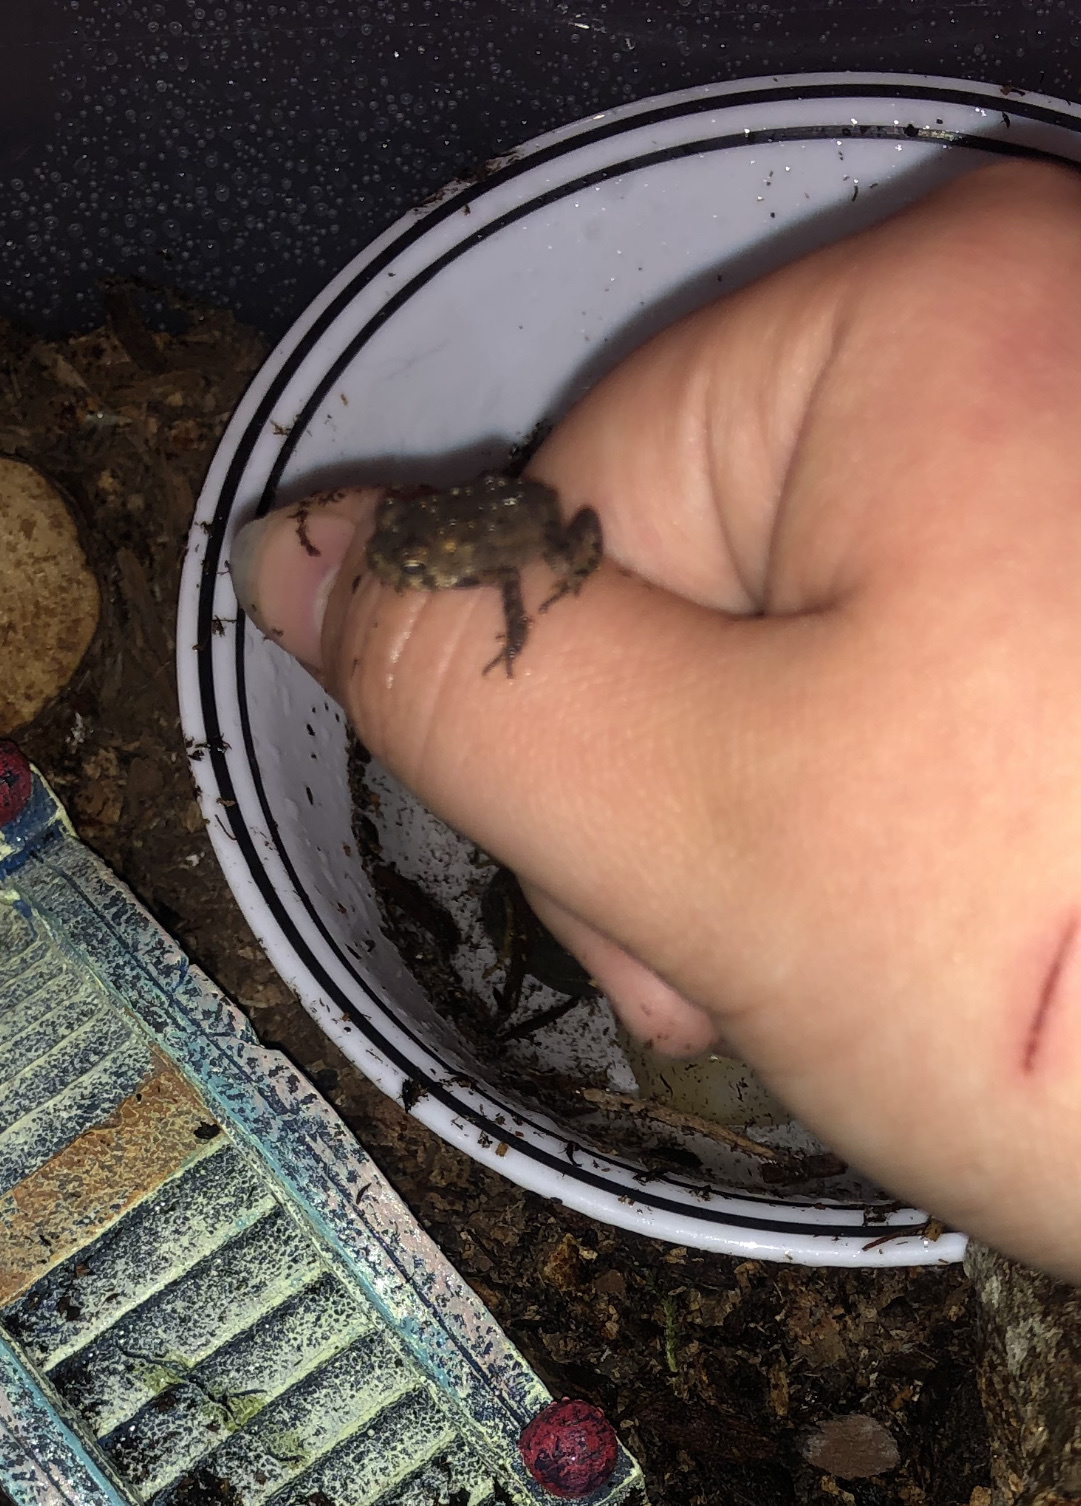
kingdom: Animalia
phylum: Chordata
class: Amphibia
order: Anura
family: Bufonidae
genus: Anaxyrus
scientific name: Anaxyrus americanus
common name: American toad
